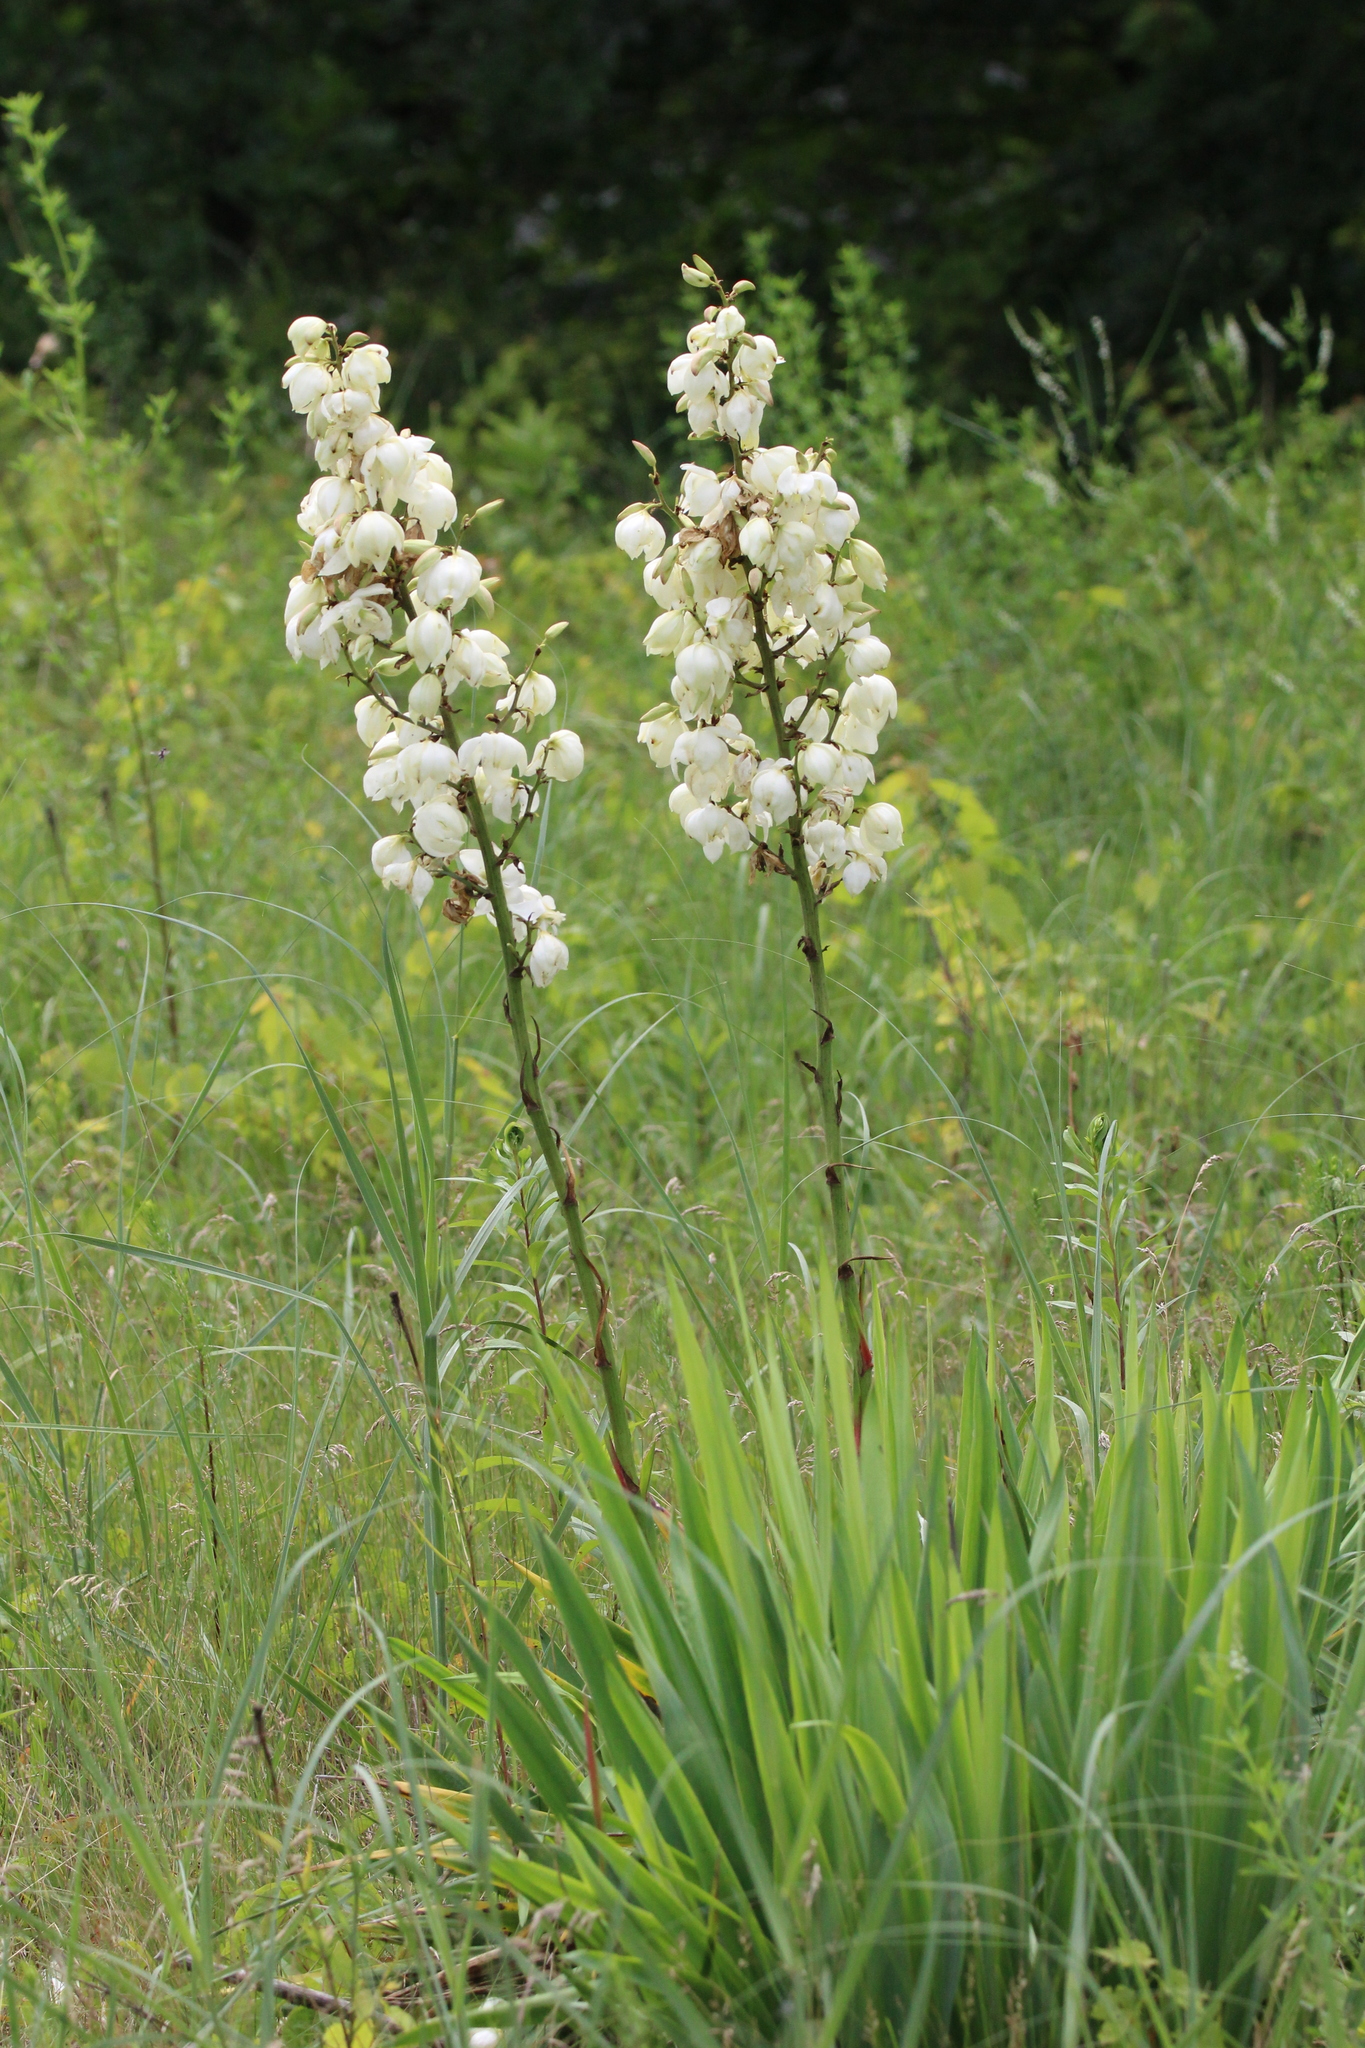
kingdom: Plantae
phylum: Tracheophyta
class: Liliopsida
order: Asparagales
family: Asparagaceae
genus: Yucca
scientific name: Yucca flaccida
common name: Adam's-needle
